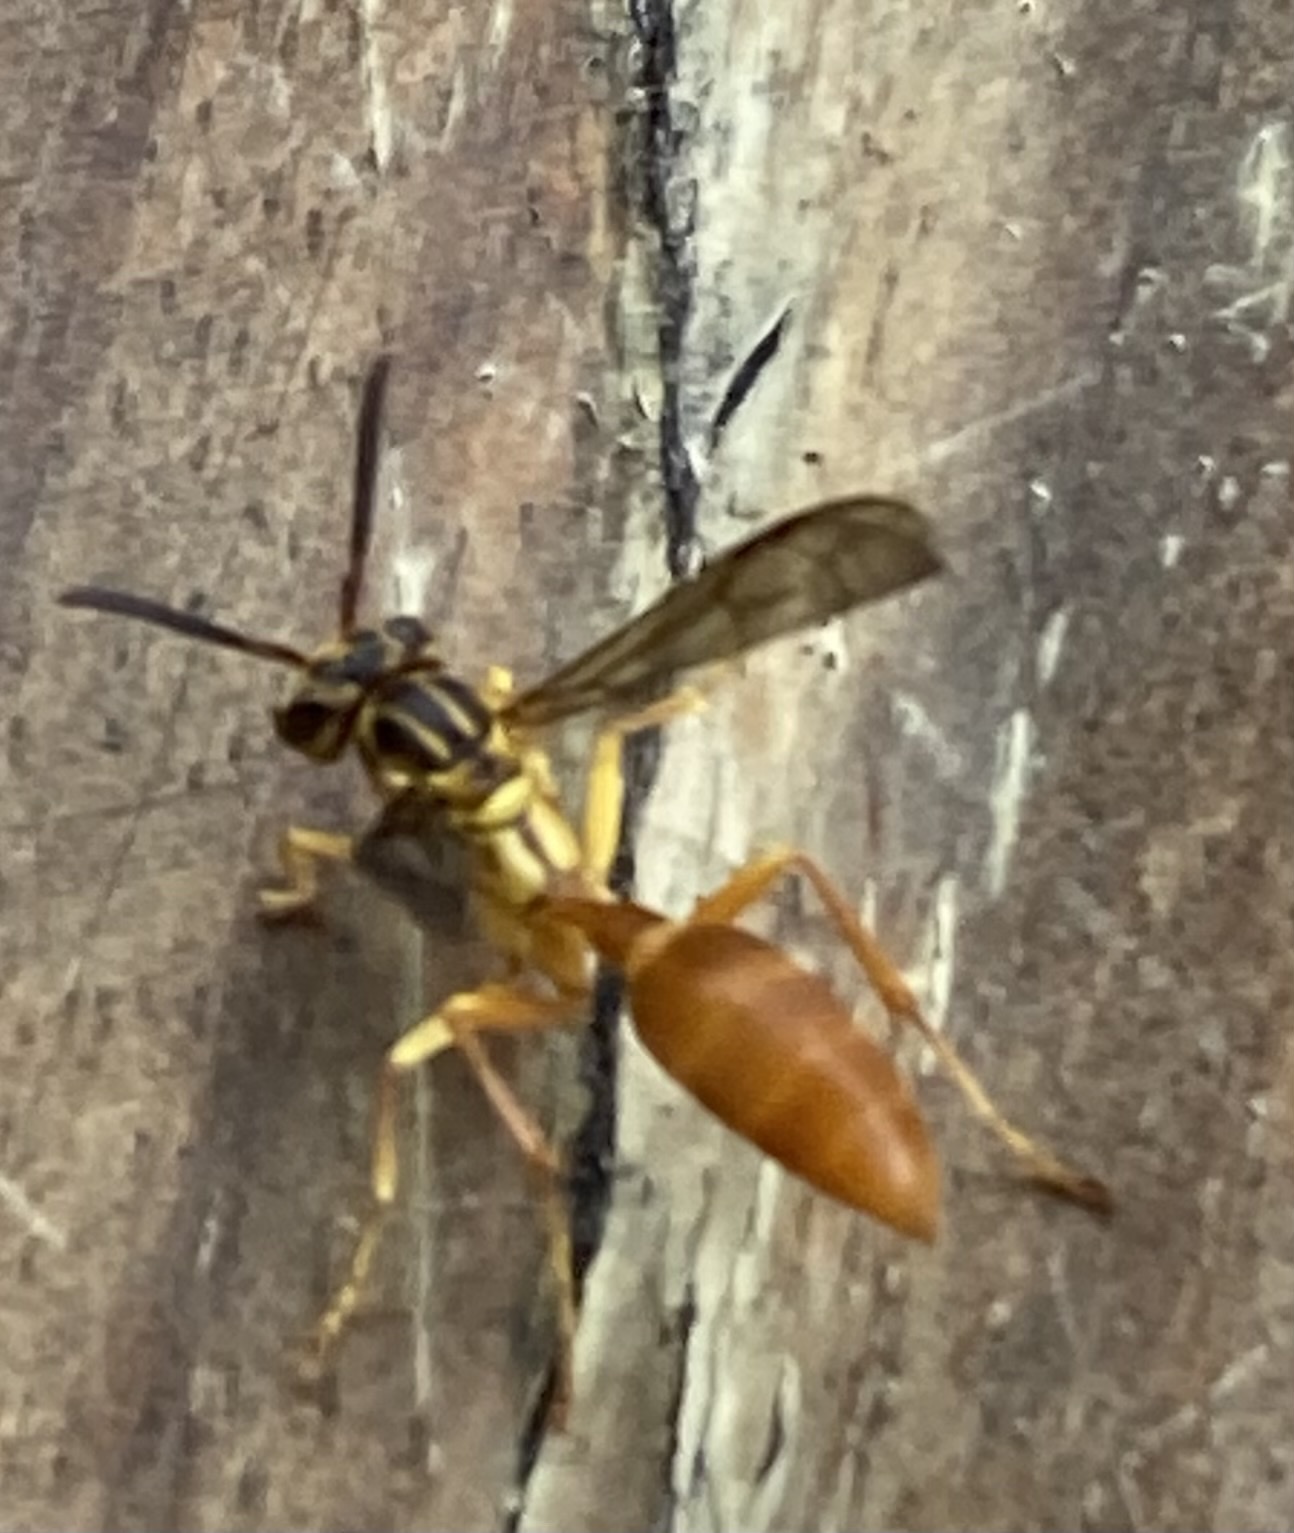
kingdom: Animalia
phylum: Arthropoda
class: Insecta
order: Hymenoptera
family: Vespidae
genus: Agelaia
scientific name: Agelaia centralis
